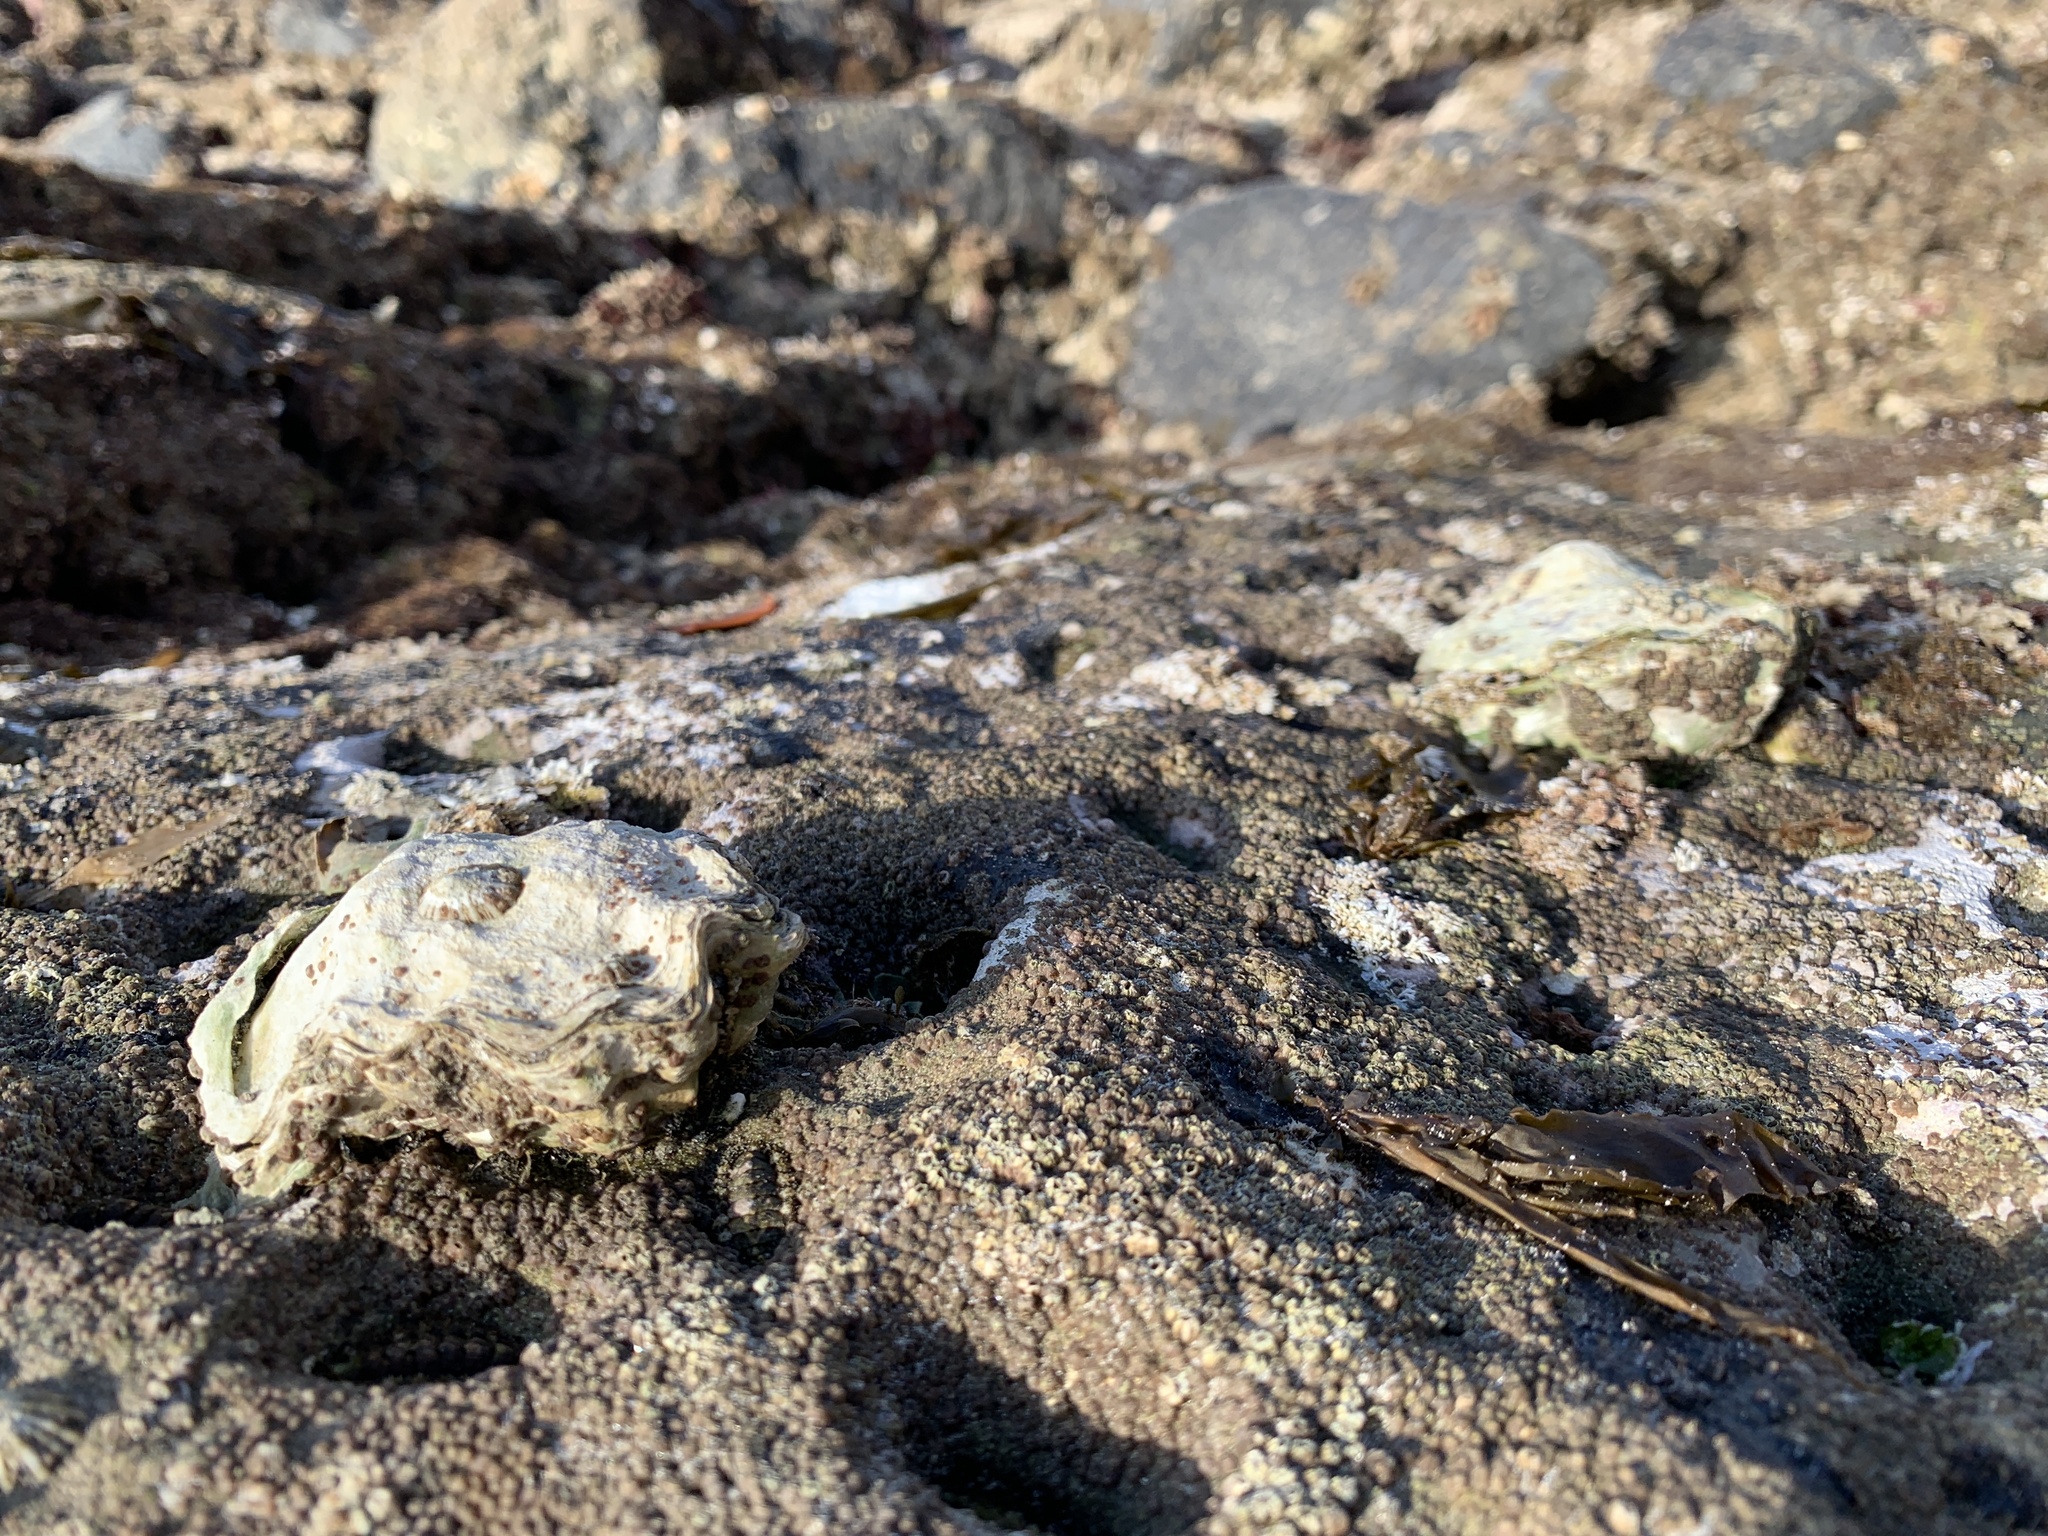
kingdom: Animalia
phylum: Mollusca
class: Bivalvia
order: Ostreida
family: Ostreidae
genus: Magallana
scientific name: Magallana gigas
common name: Pacific oyster
